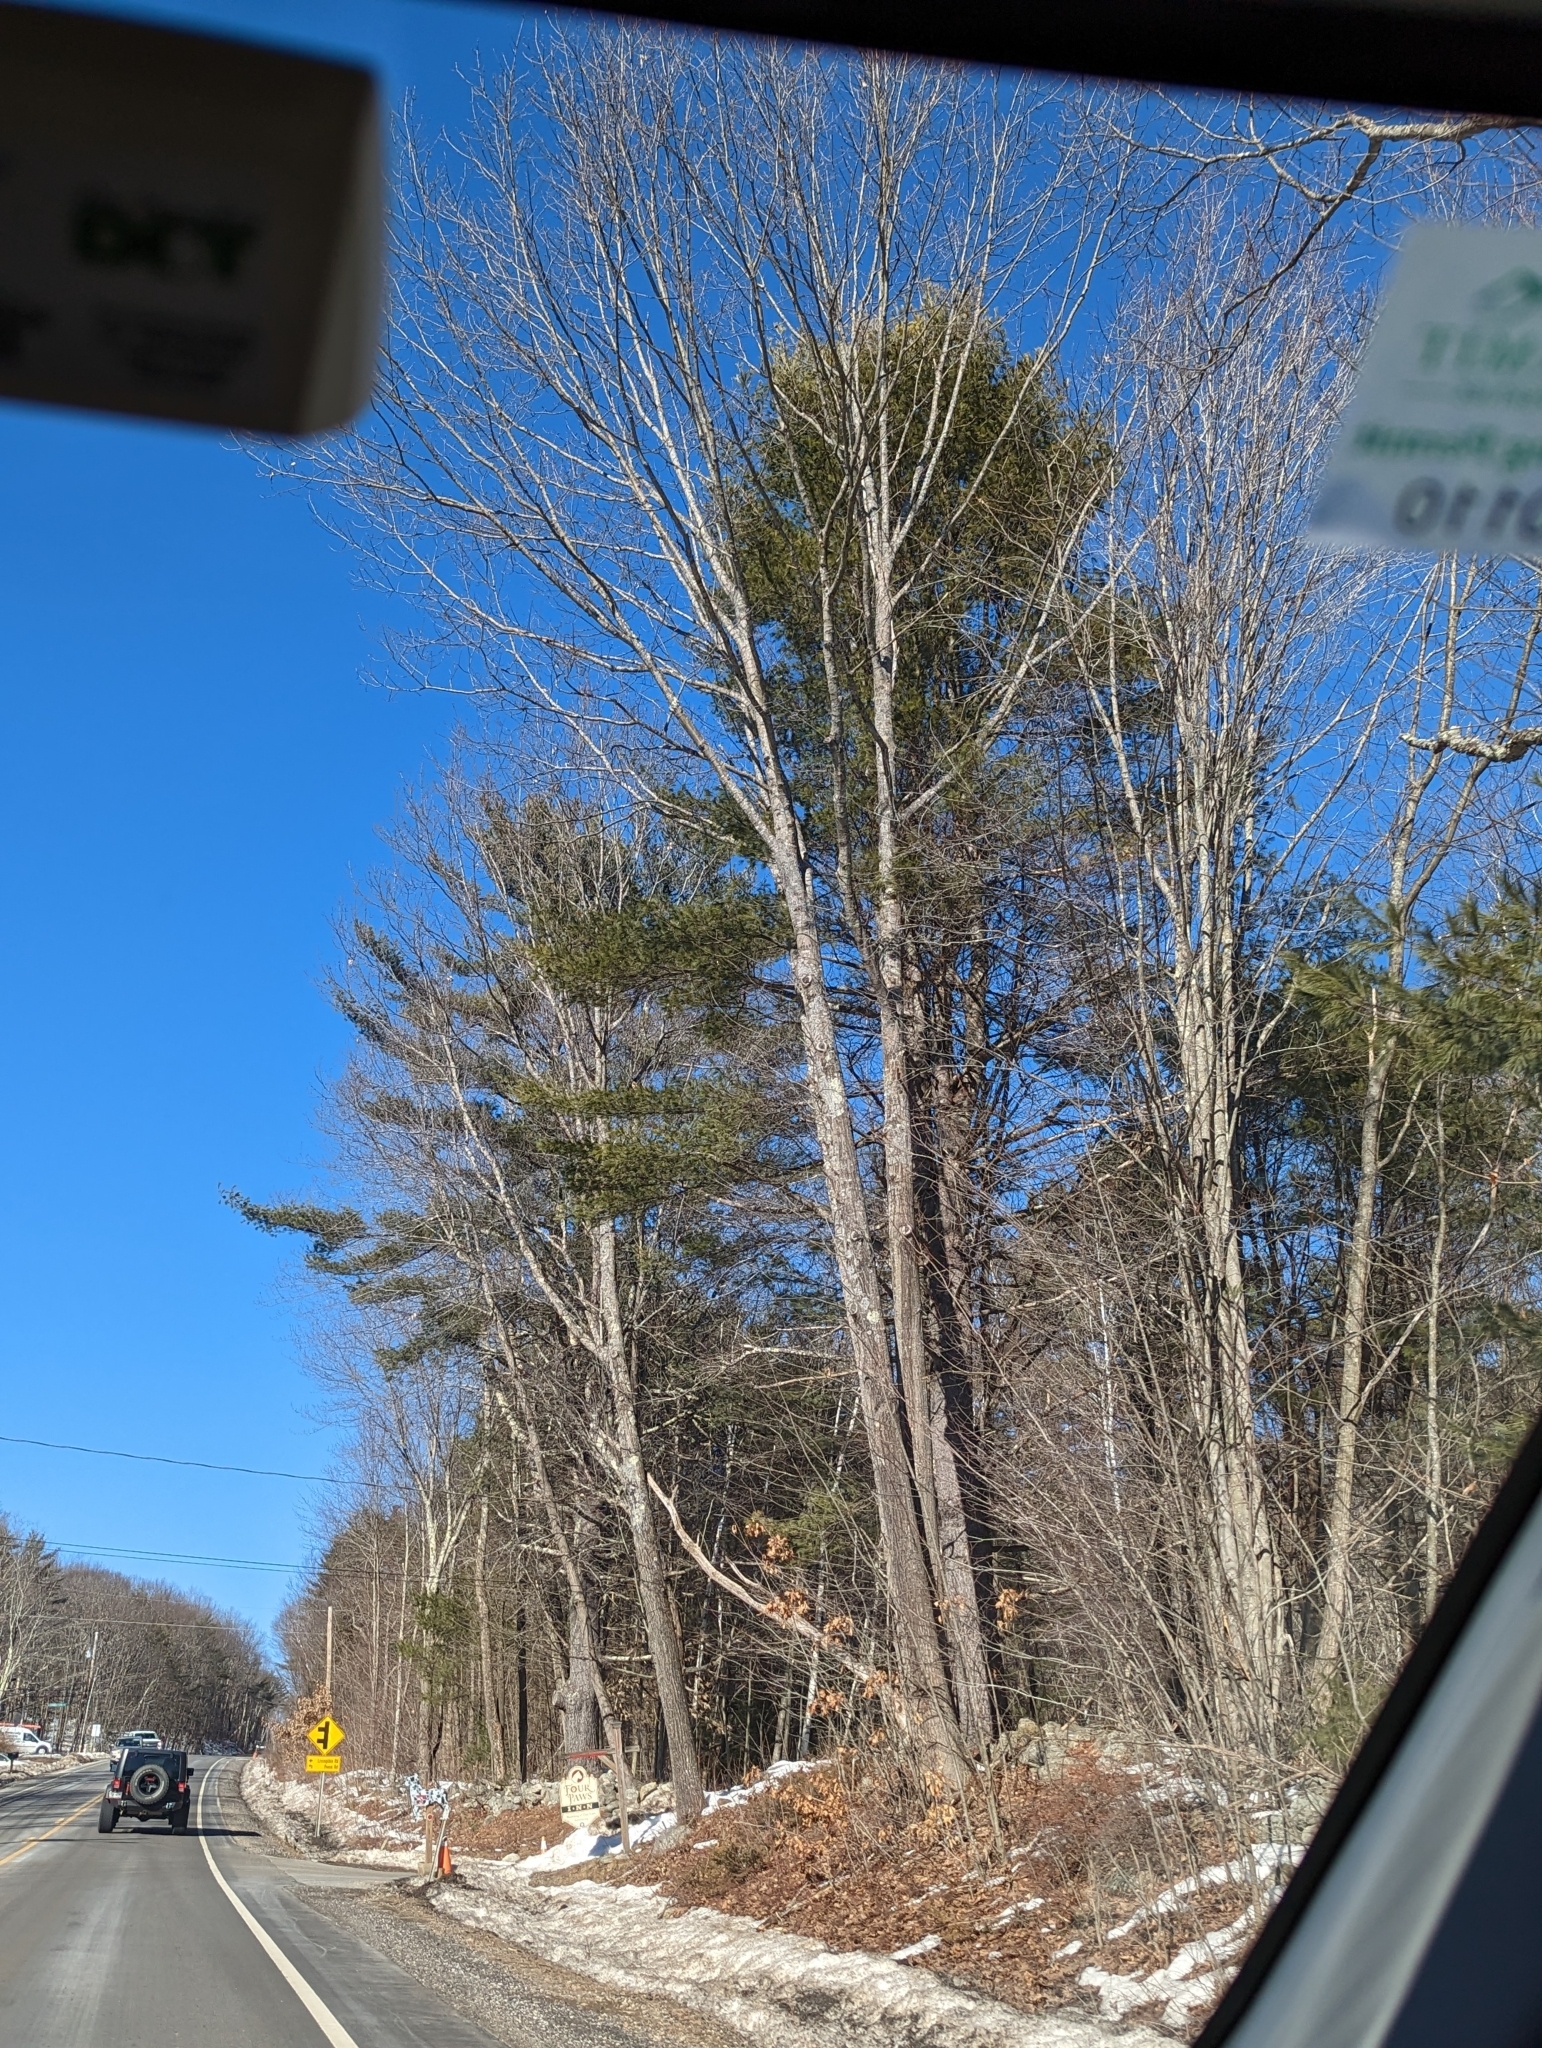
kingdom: Plantae
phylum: Tracheophyta
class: Pinopsida
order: Pinales
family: Pinaceae
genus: Pinus
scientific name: Pinus strobus
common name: Weymouth pine
